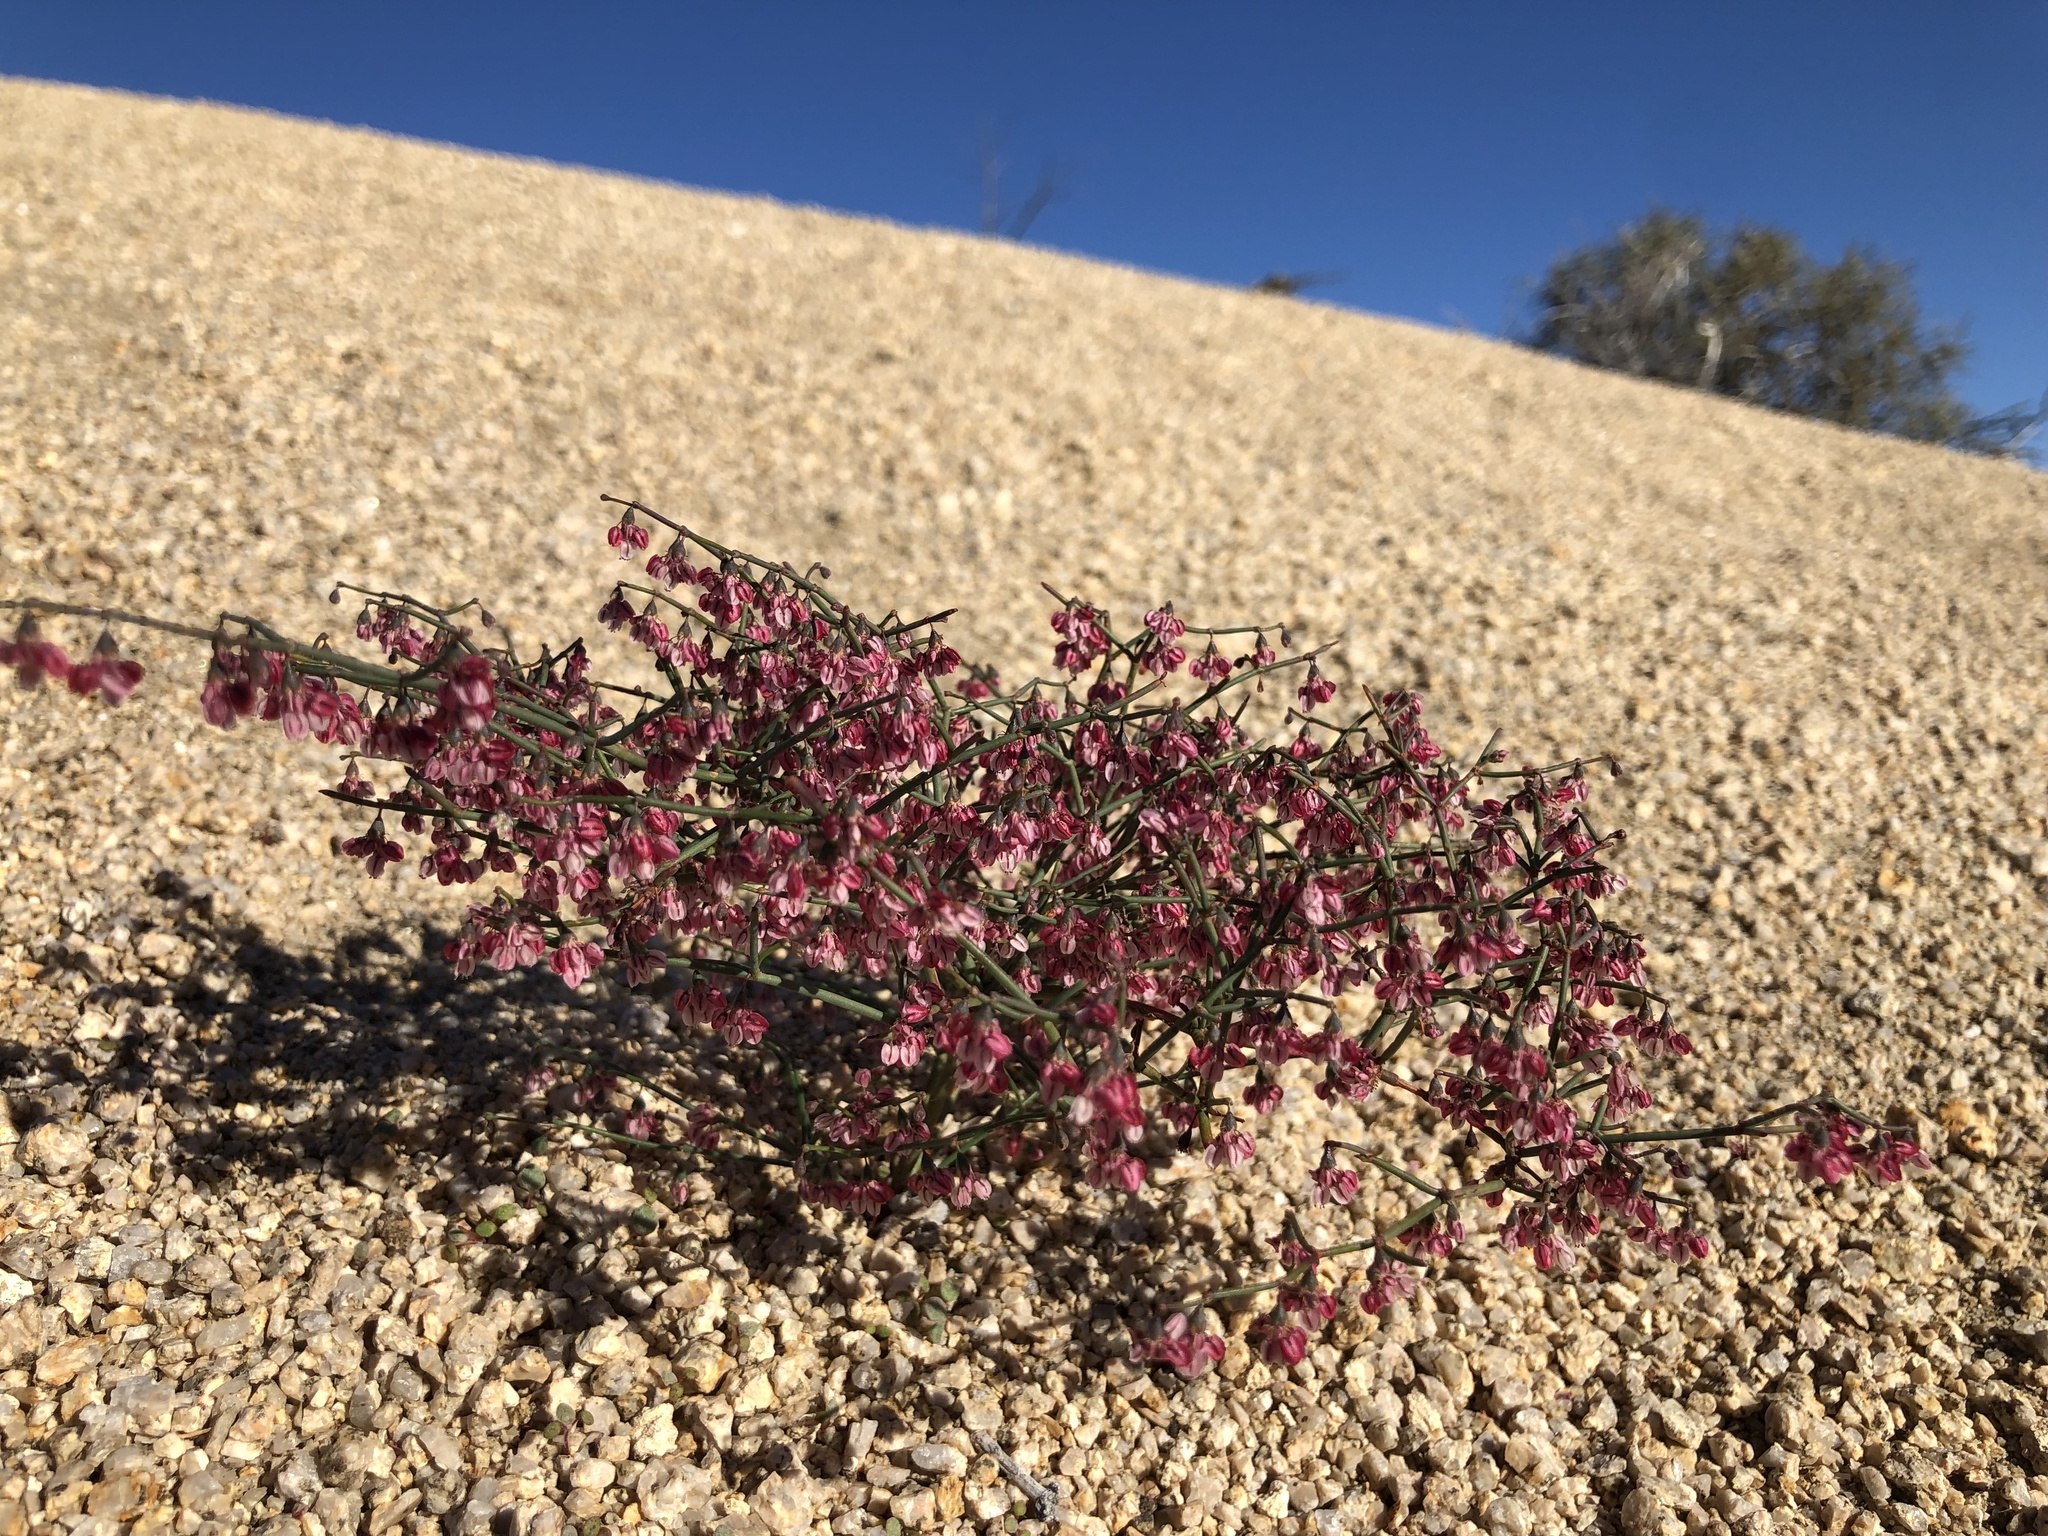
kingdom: Plantae
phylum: Tracheophyta
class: Magnoliopsida
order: Caryophyllales
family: Polygonaceae
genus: Eriogonum
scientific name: Eriogonum deflexum
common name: Skeleton-weed
